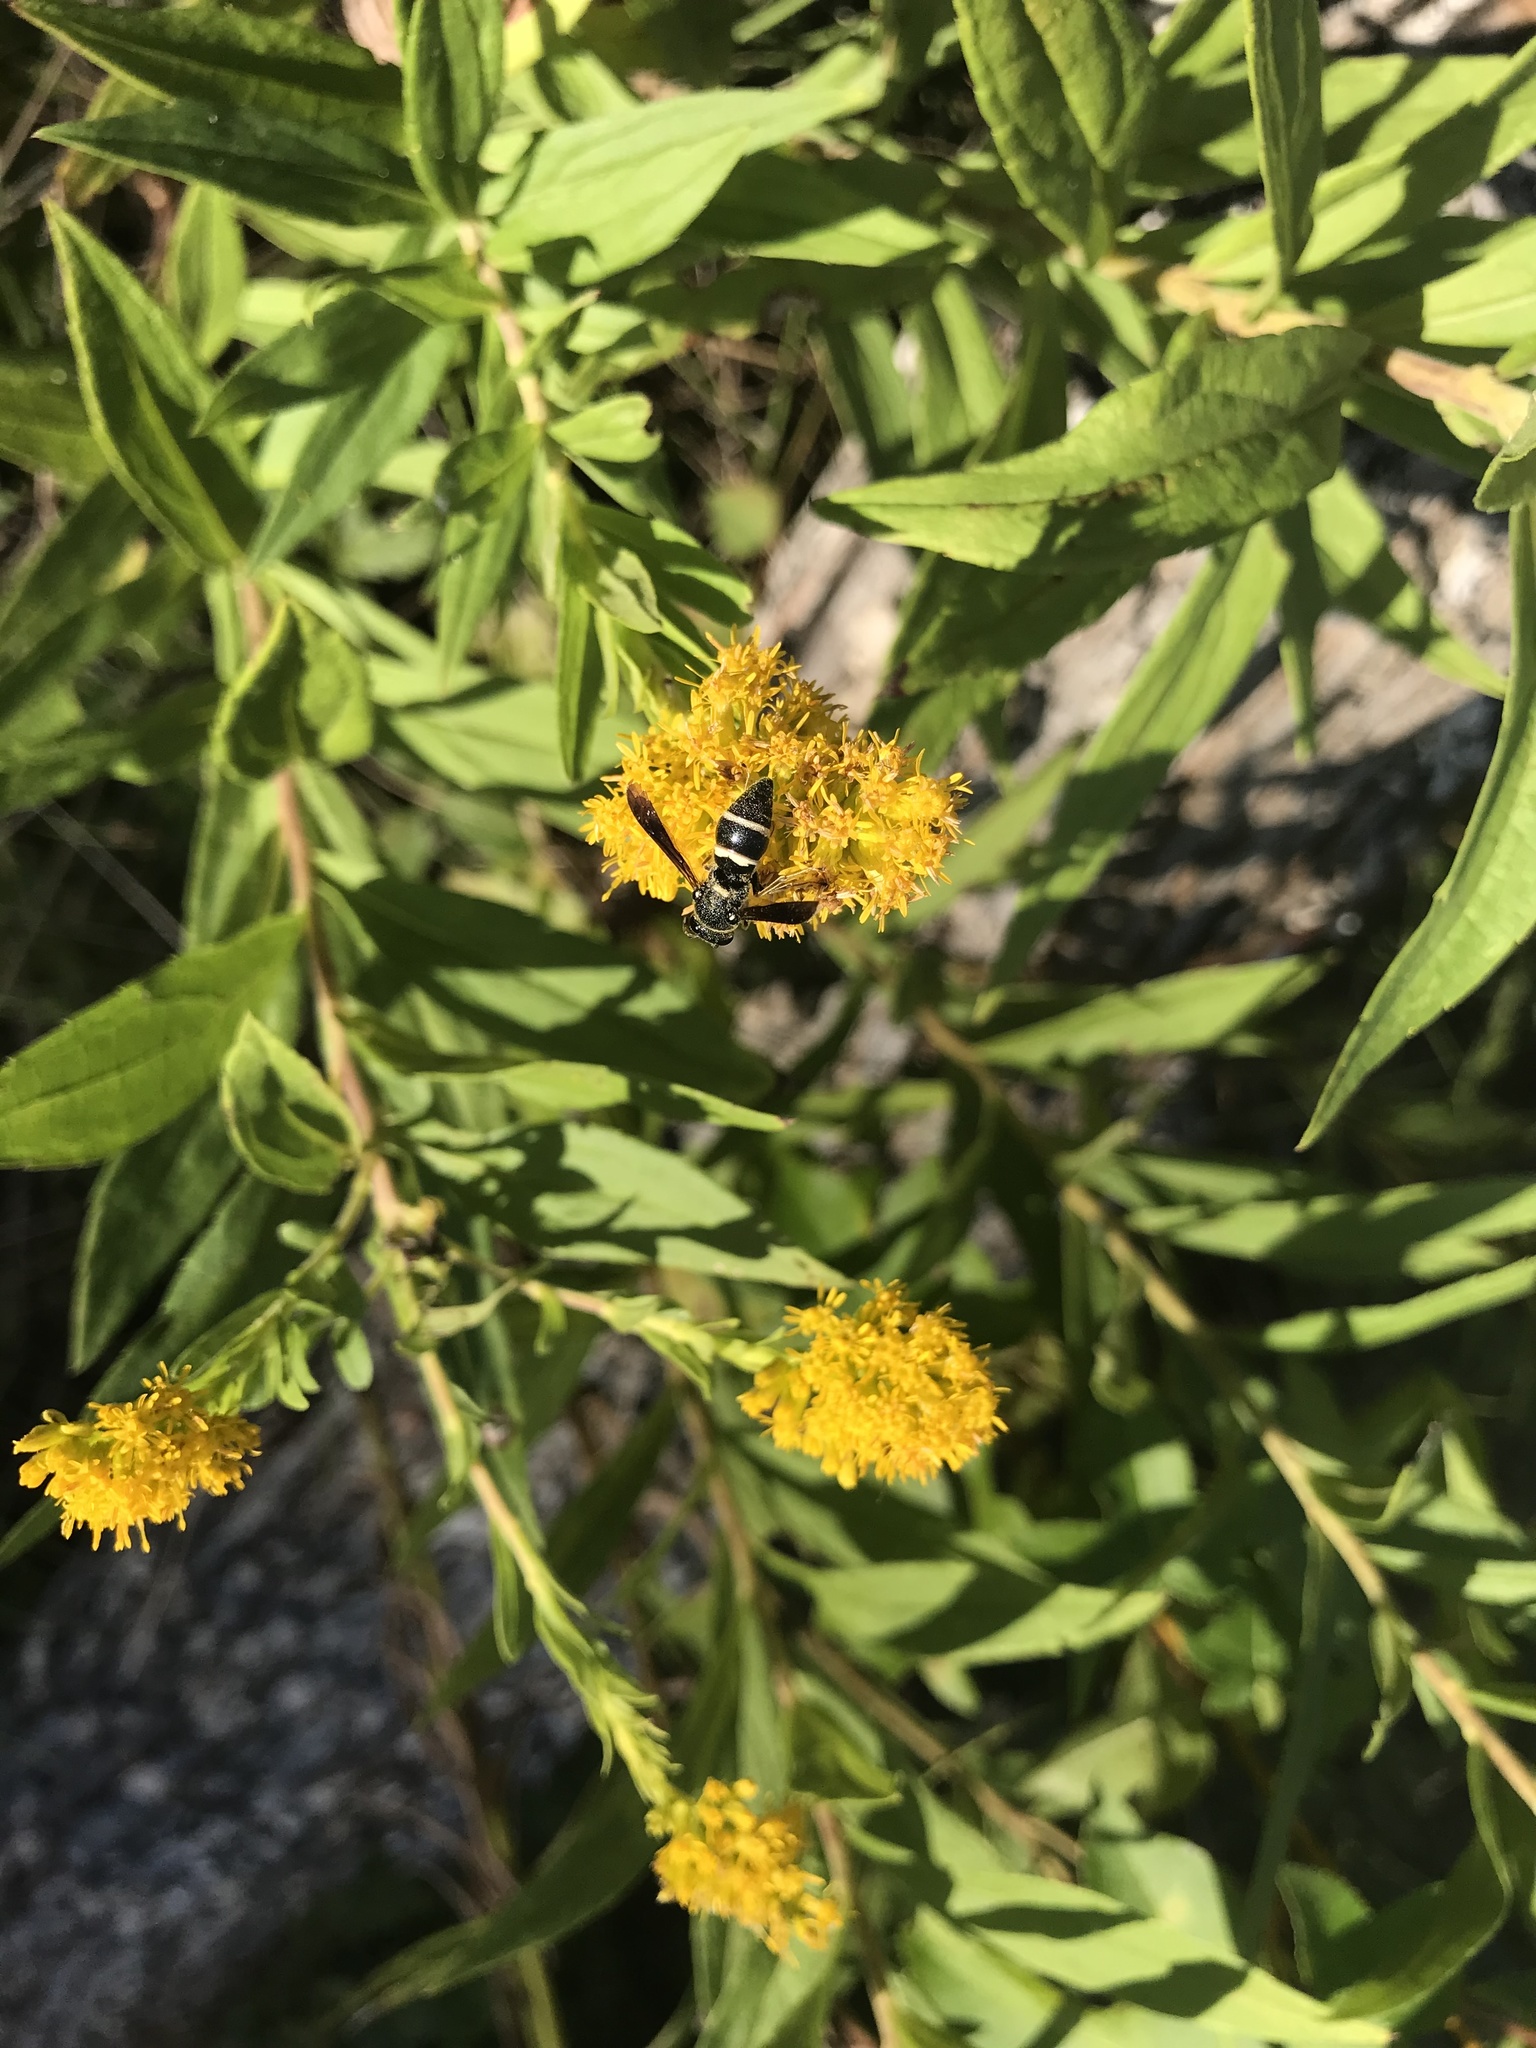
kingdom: Animalia
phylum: Arthropoda
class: Insecta
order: Hymenoptera
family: Eumenidae
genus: Euodynerus
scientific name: Euodynerus megaera
